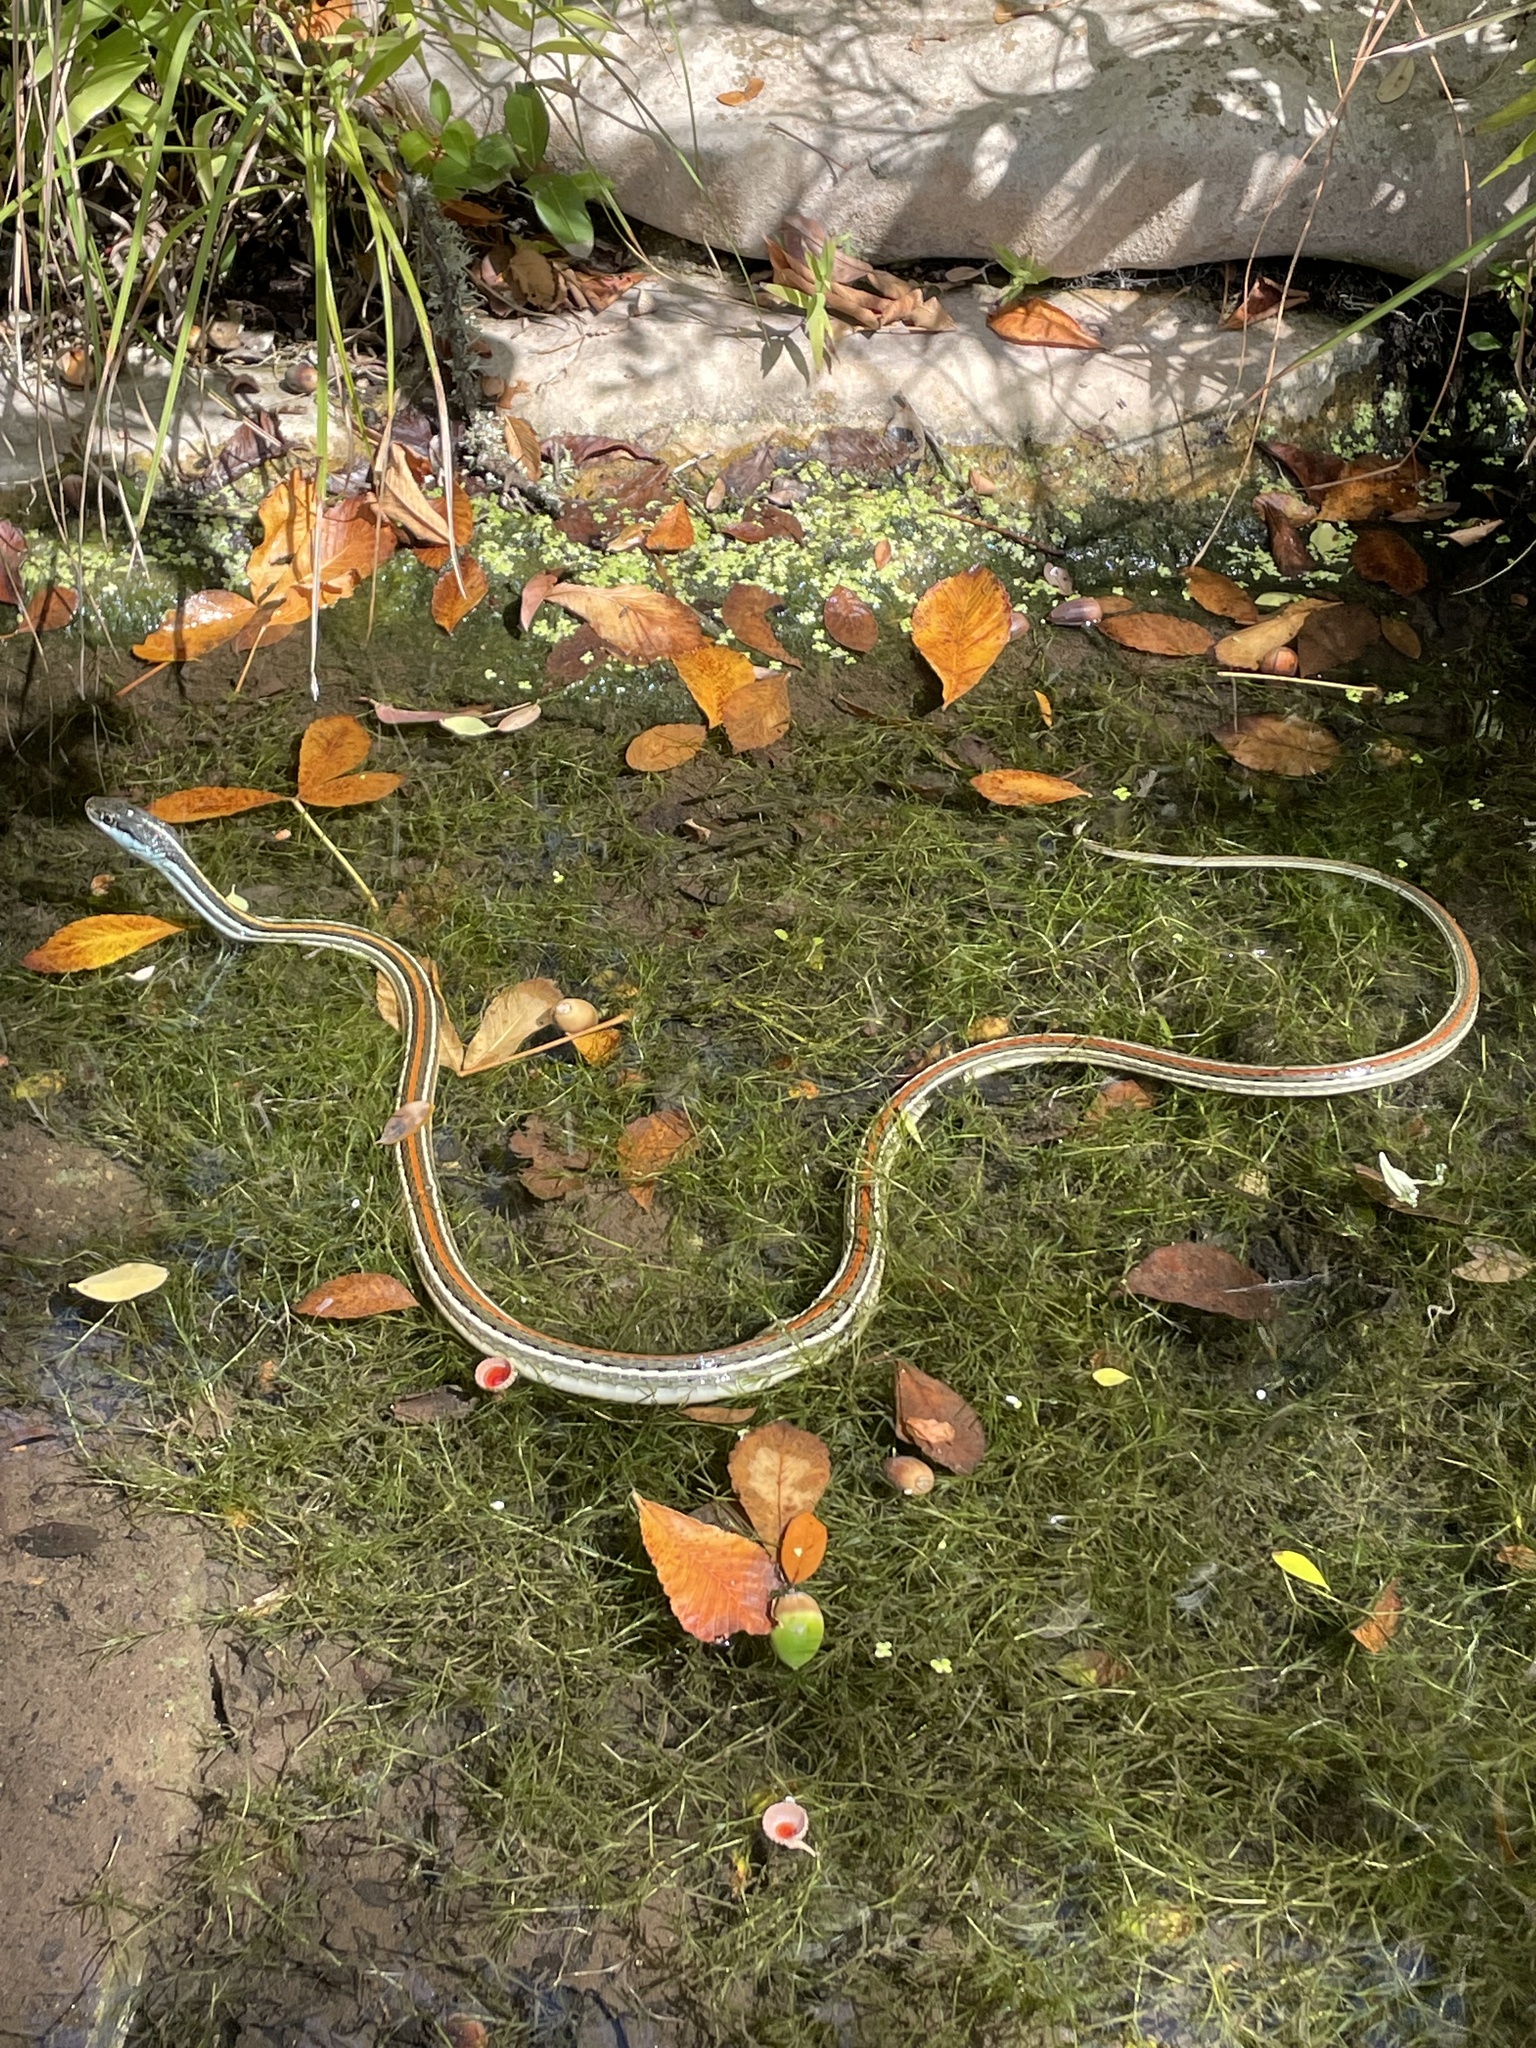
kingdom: Animalia
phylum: Chordata
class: Squamata
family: Colubridae
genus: Thamnophis
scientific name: Thamnophis proximus
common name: Western ribbon snake
